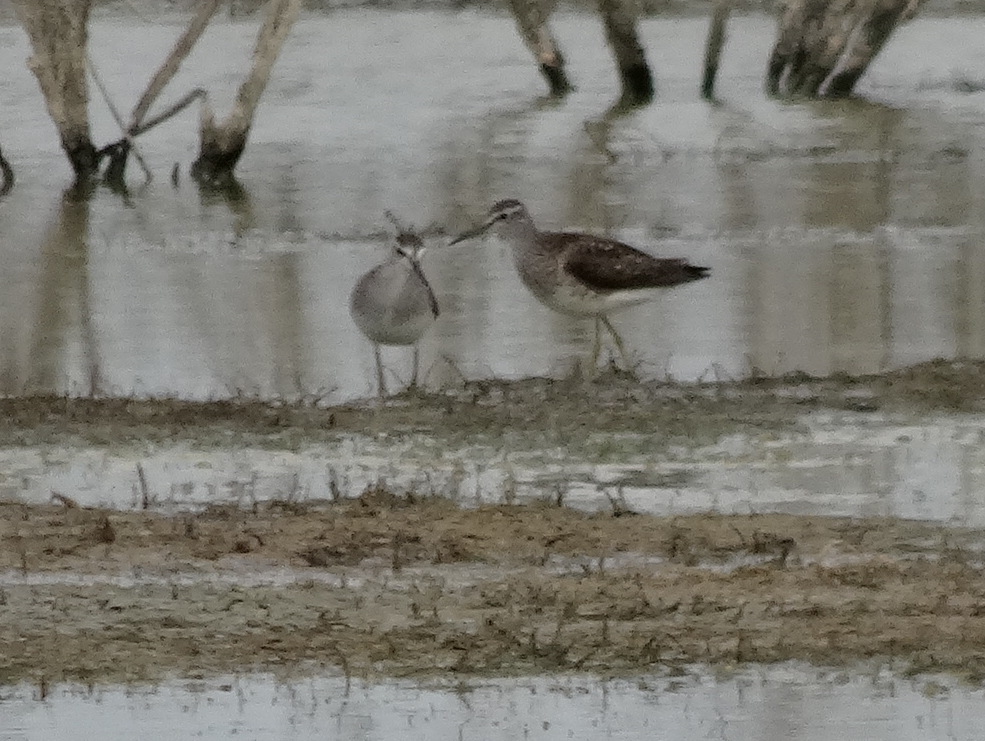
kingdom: Animalia
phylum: Chordata
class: Aves
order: Charadriiformes
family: Scolopacidae
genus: Tringa
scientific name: Tringa glareola
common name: Wood sandpiper
